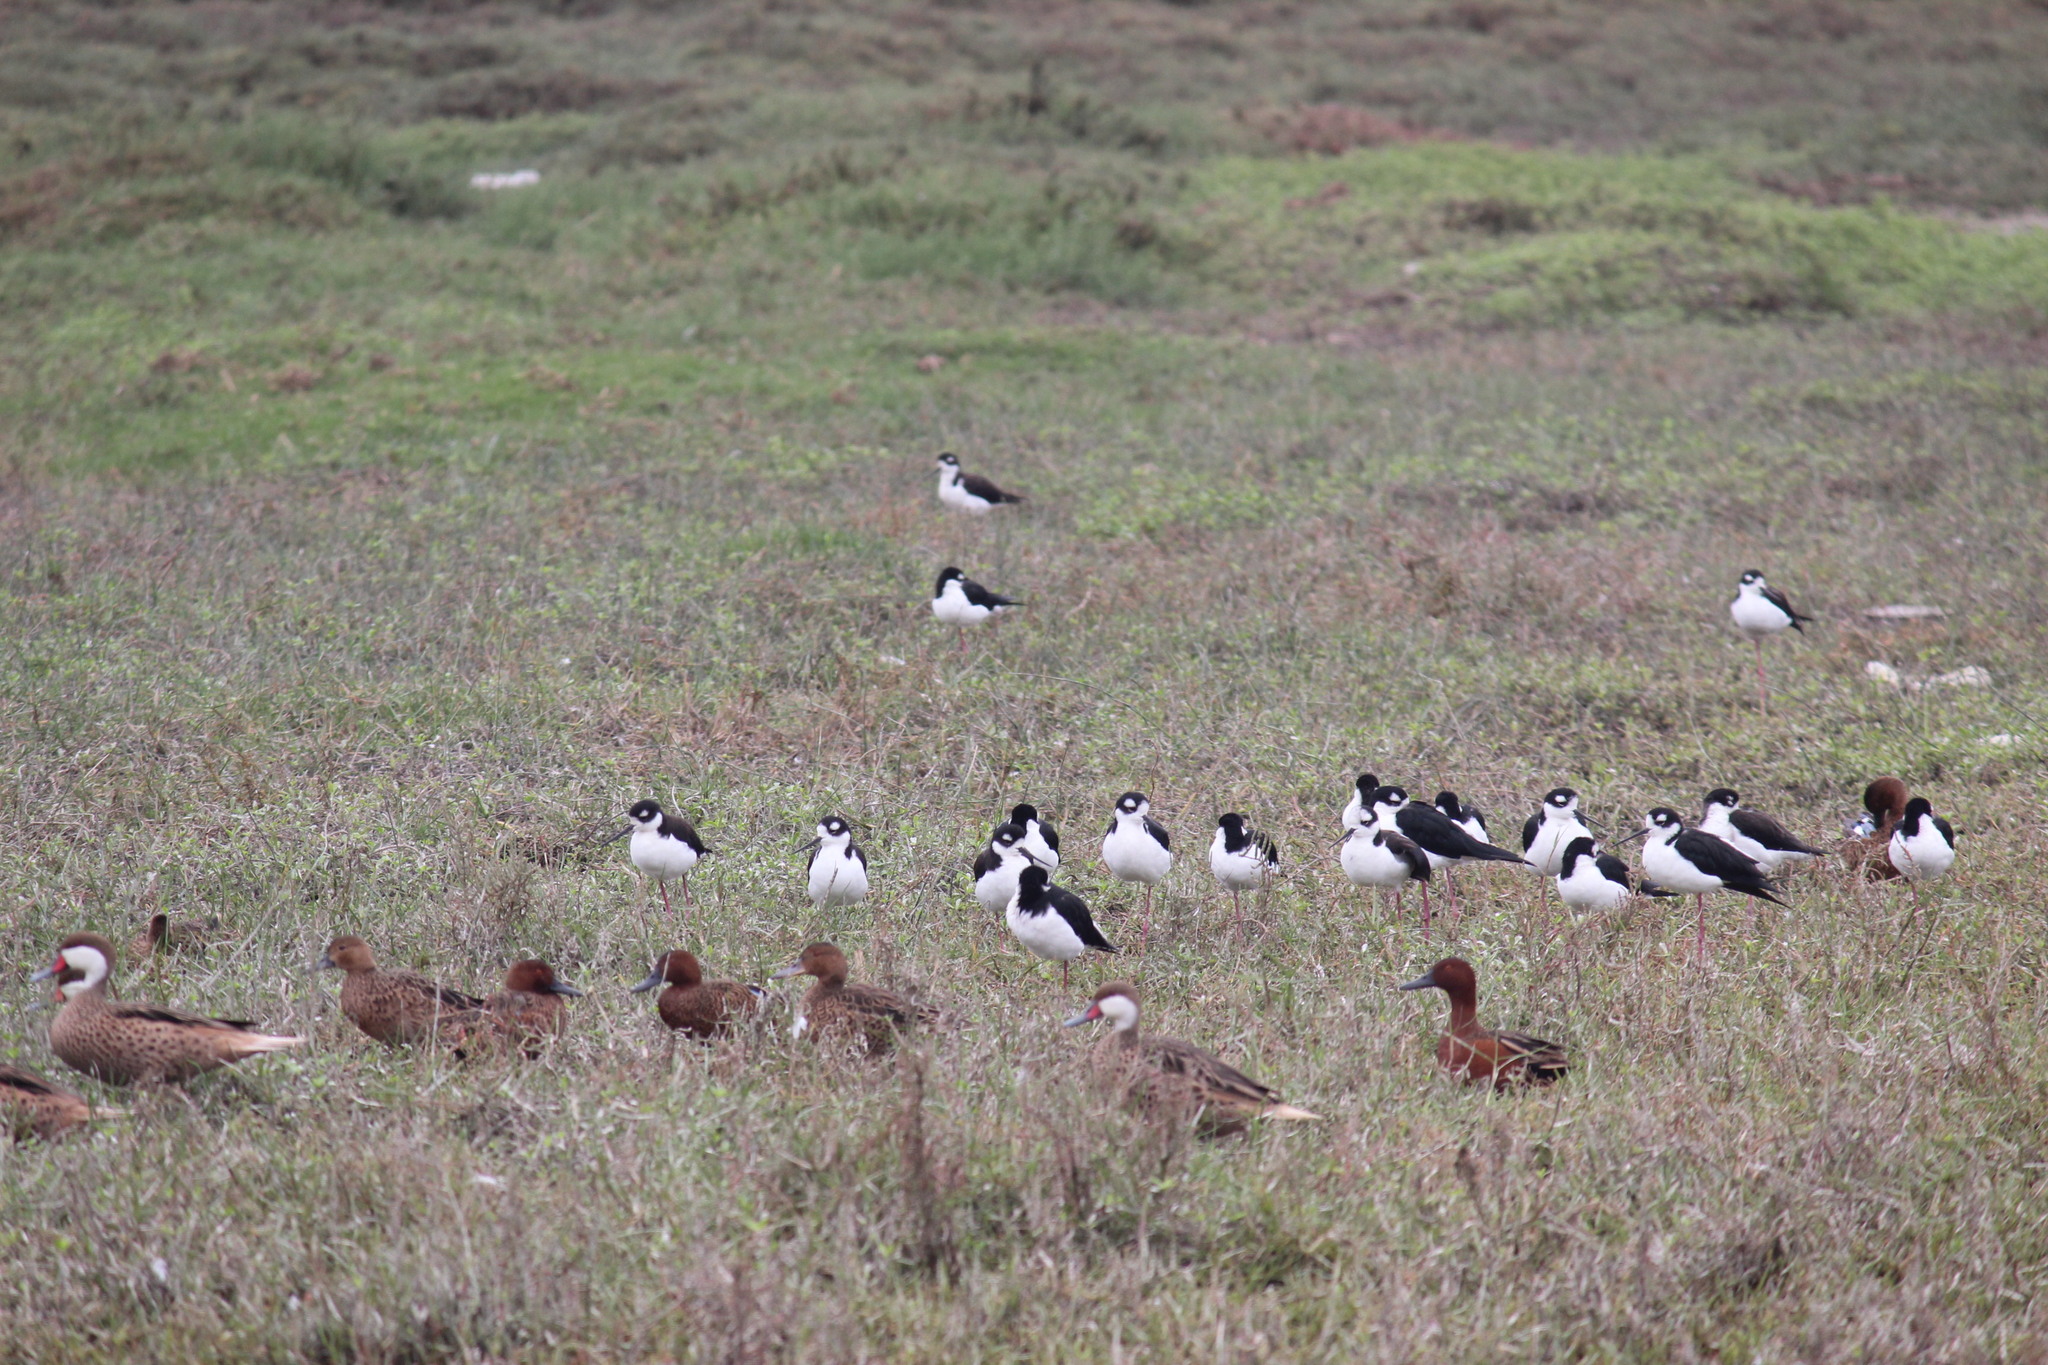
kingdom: Animalia
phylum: Chordata
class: Aves
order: Charadriiformes
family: Recurvirostridae
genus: Himantopus
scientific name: Himantopus mexicanus
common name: Black-necked stilt
